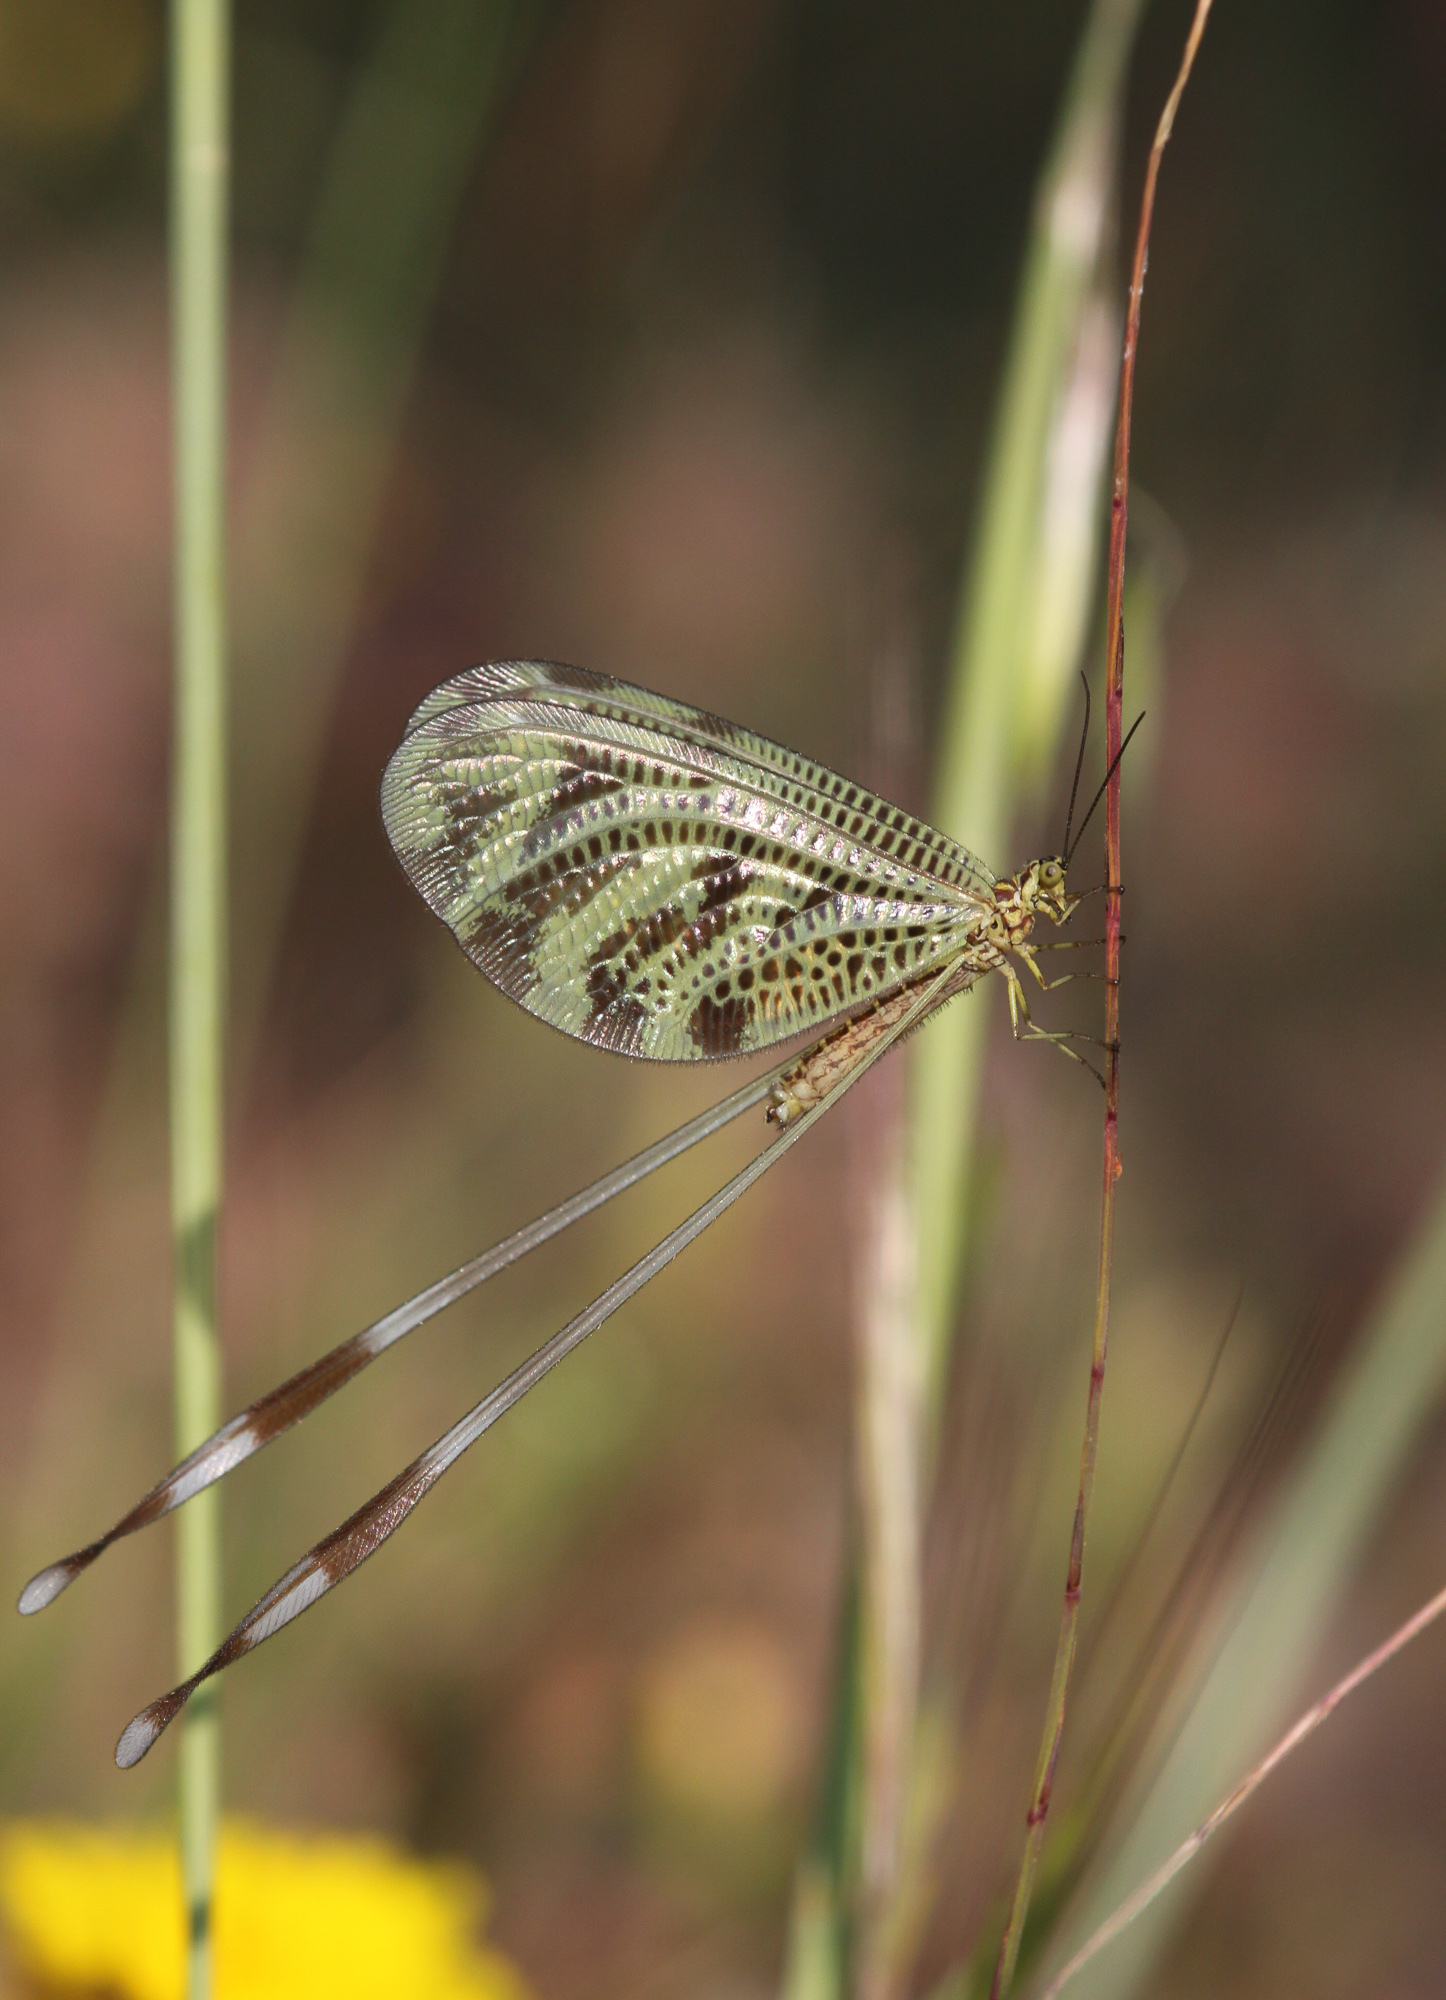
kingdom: Animalia
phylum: Arthropoda
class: Insecta
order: Neuroptera
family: Nemopteridae
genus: Nemoptera
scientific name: Nemoptera coa
